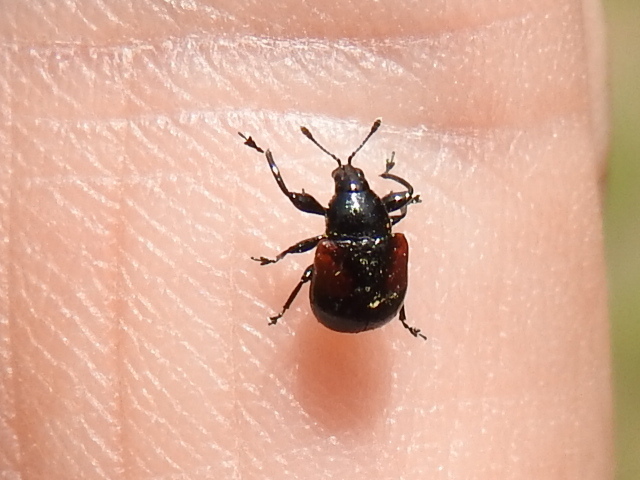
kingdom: Animalia
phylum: Arthropoda
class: Insecta
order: Coleoptera
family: Attelabidae
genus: Attelabus
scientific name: Attelabus bipustulatus
